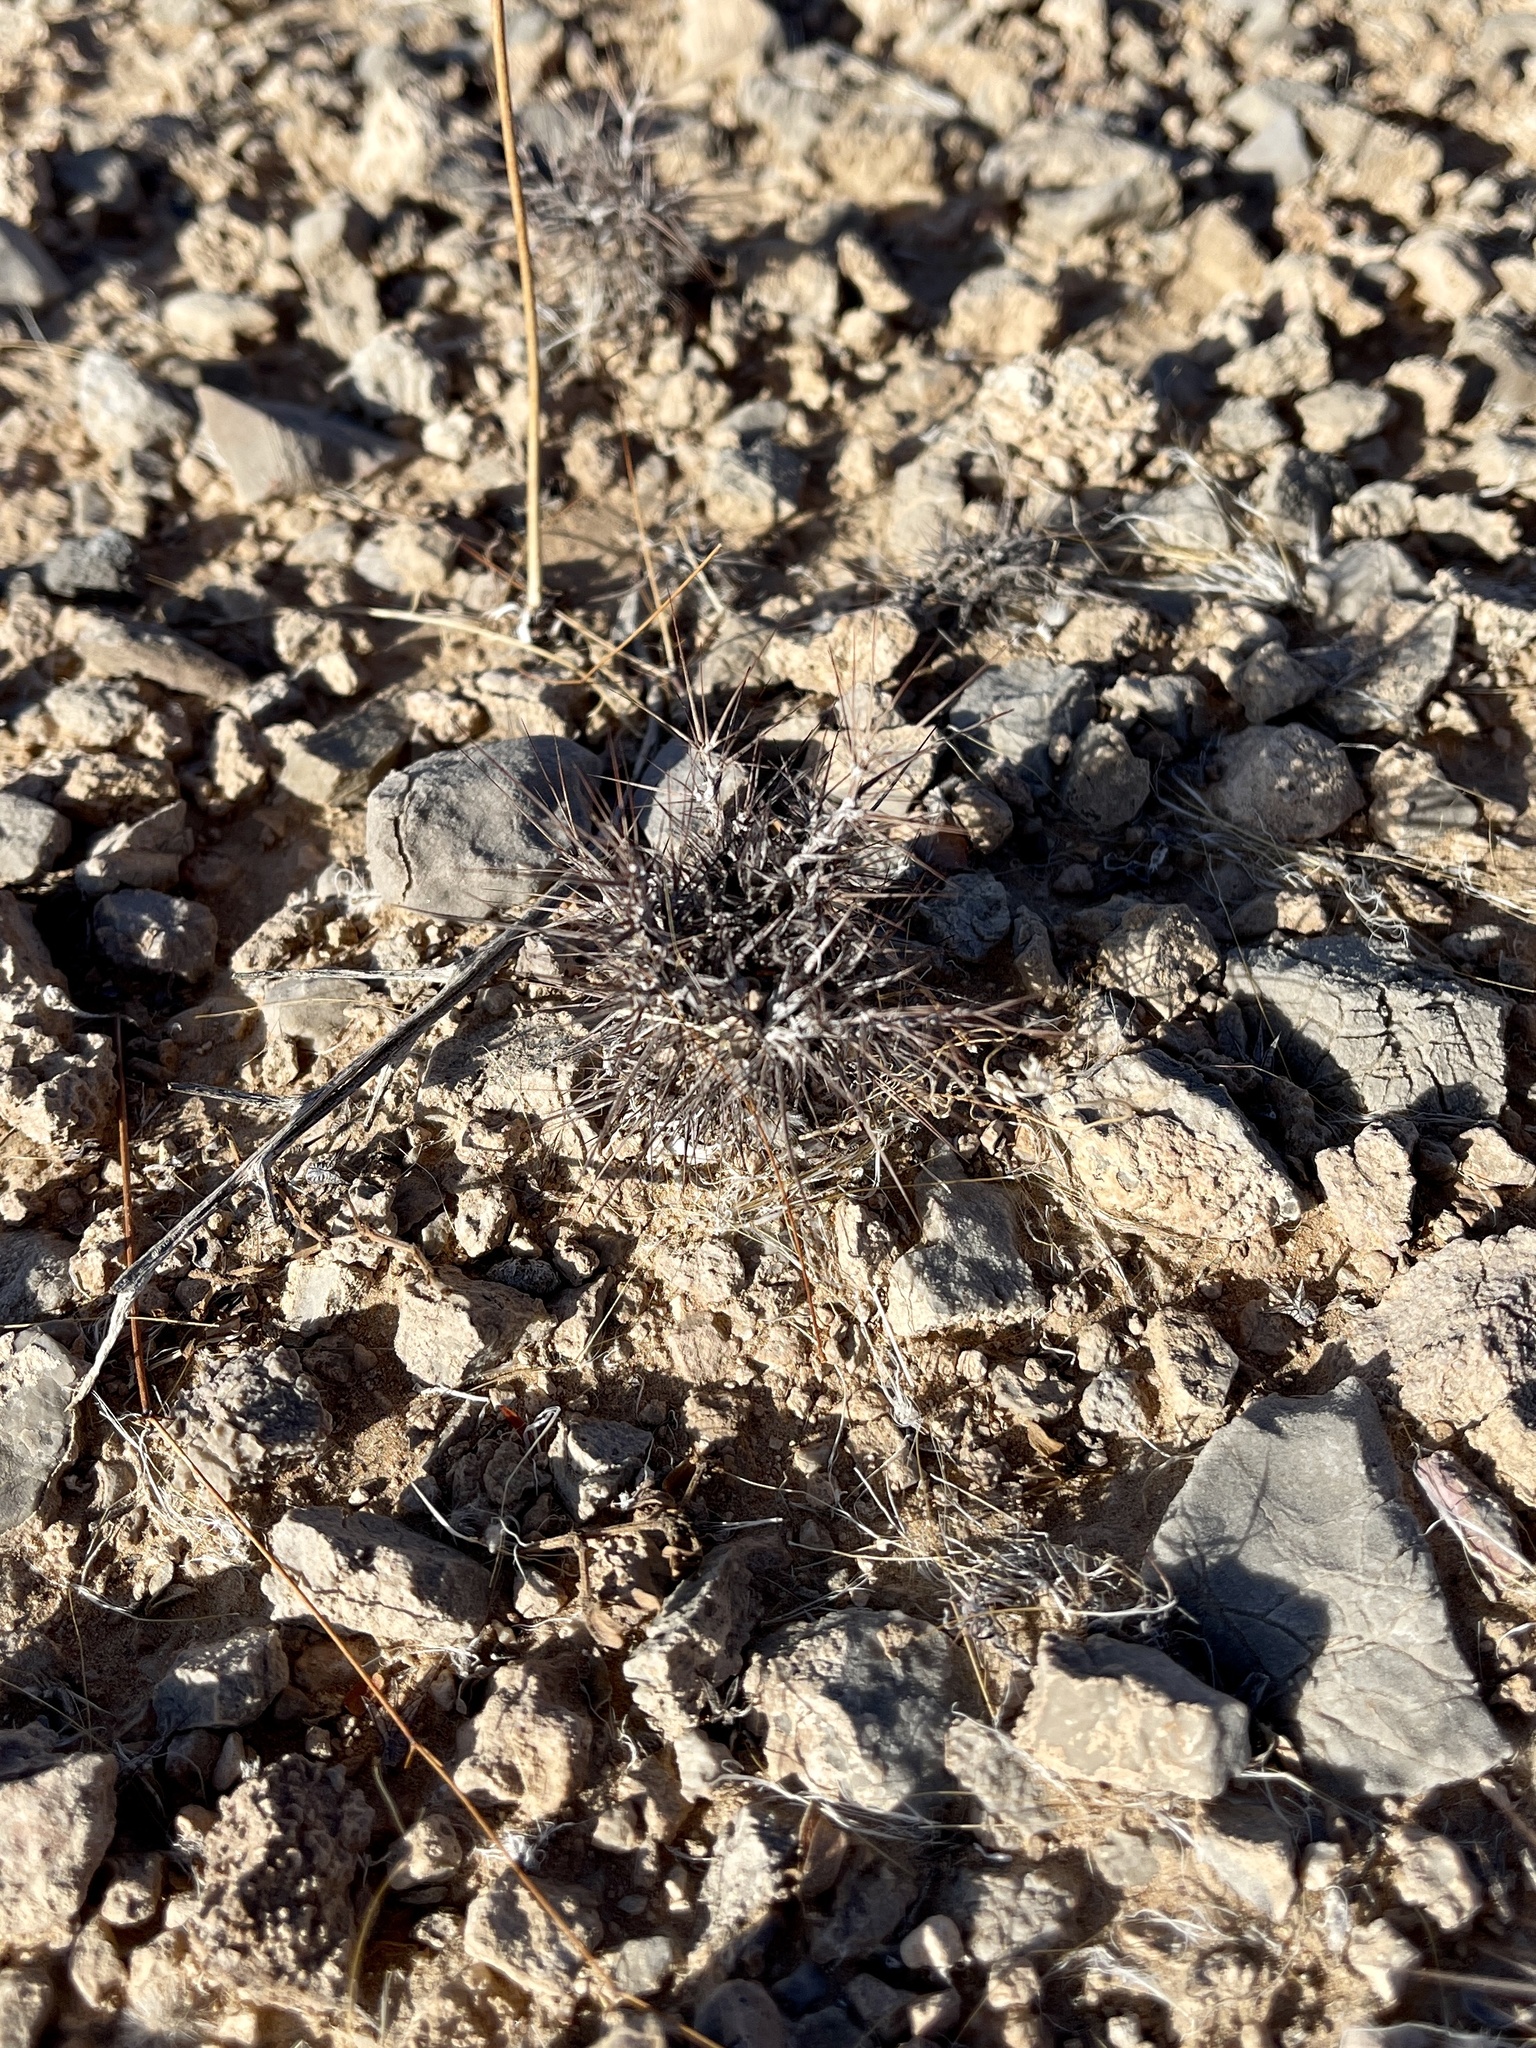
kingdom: Plantae
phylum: Tracheophyta
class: Magnoliopsida
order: Caryophyllales
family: Polygonaceae
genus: Chorizanthe
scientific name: Chorizanthe rigida
